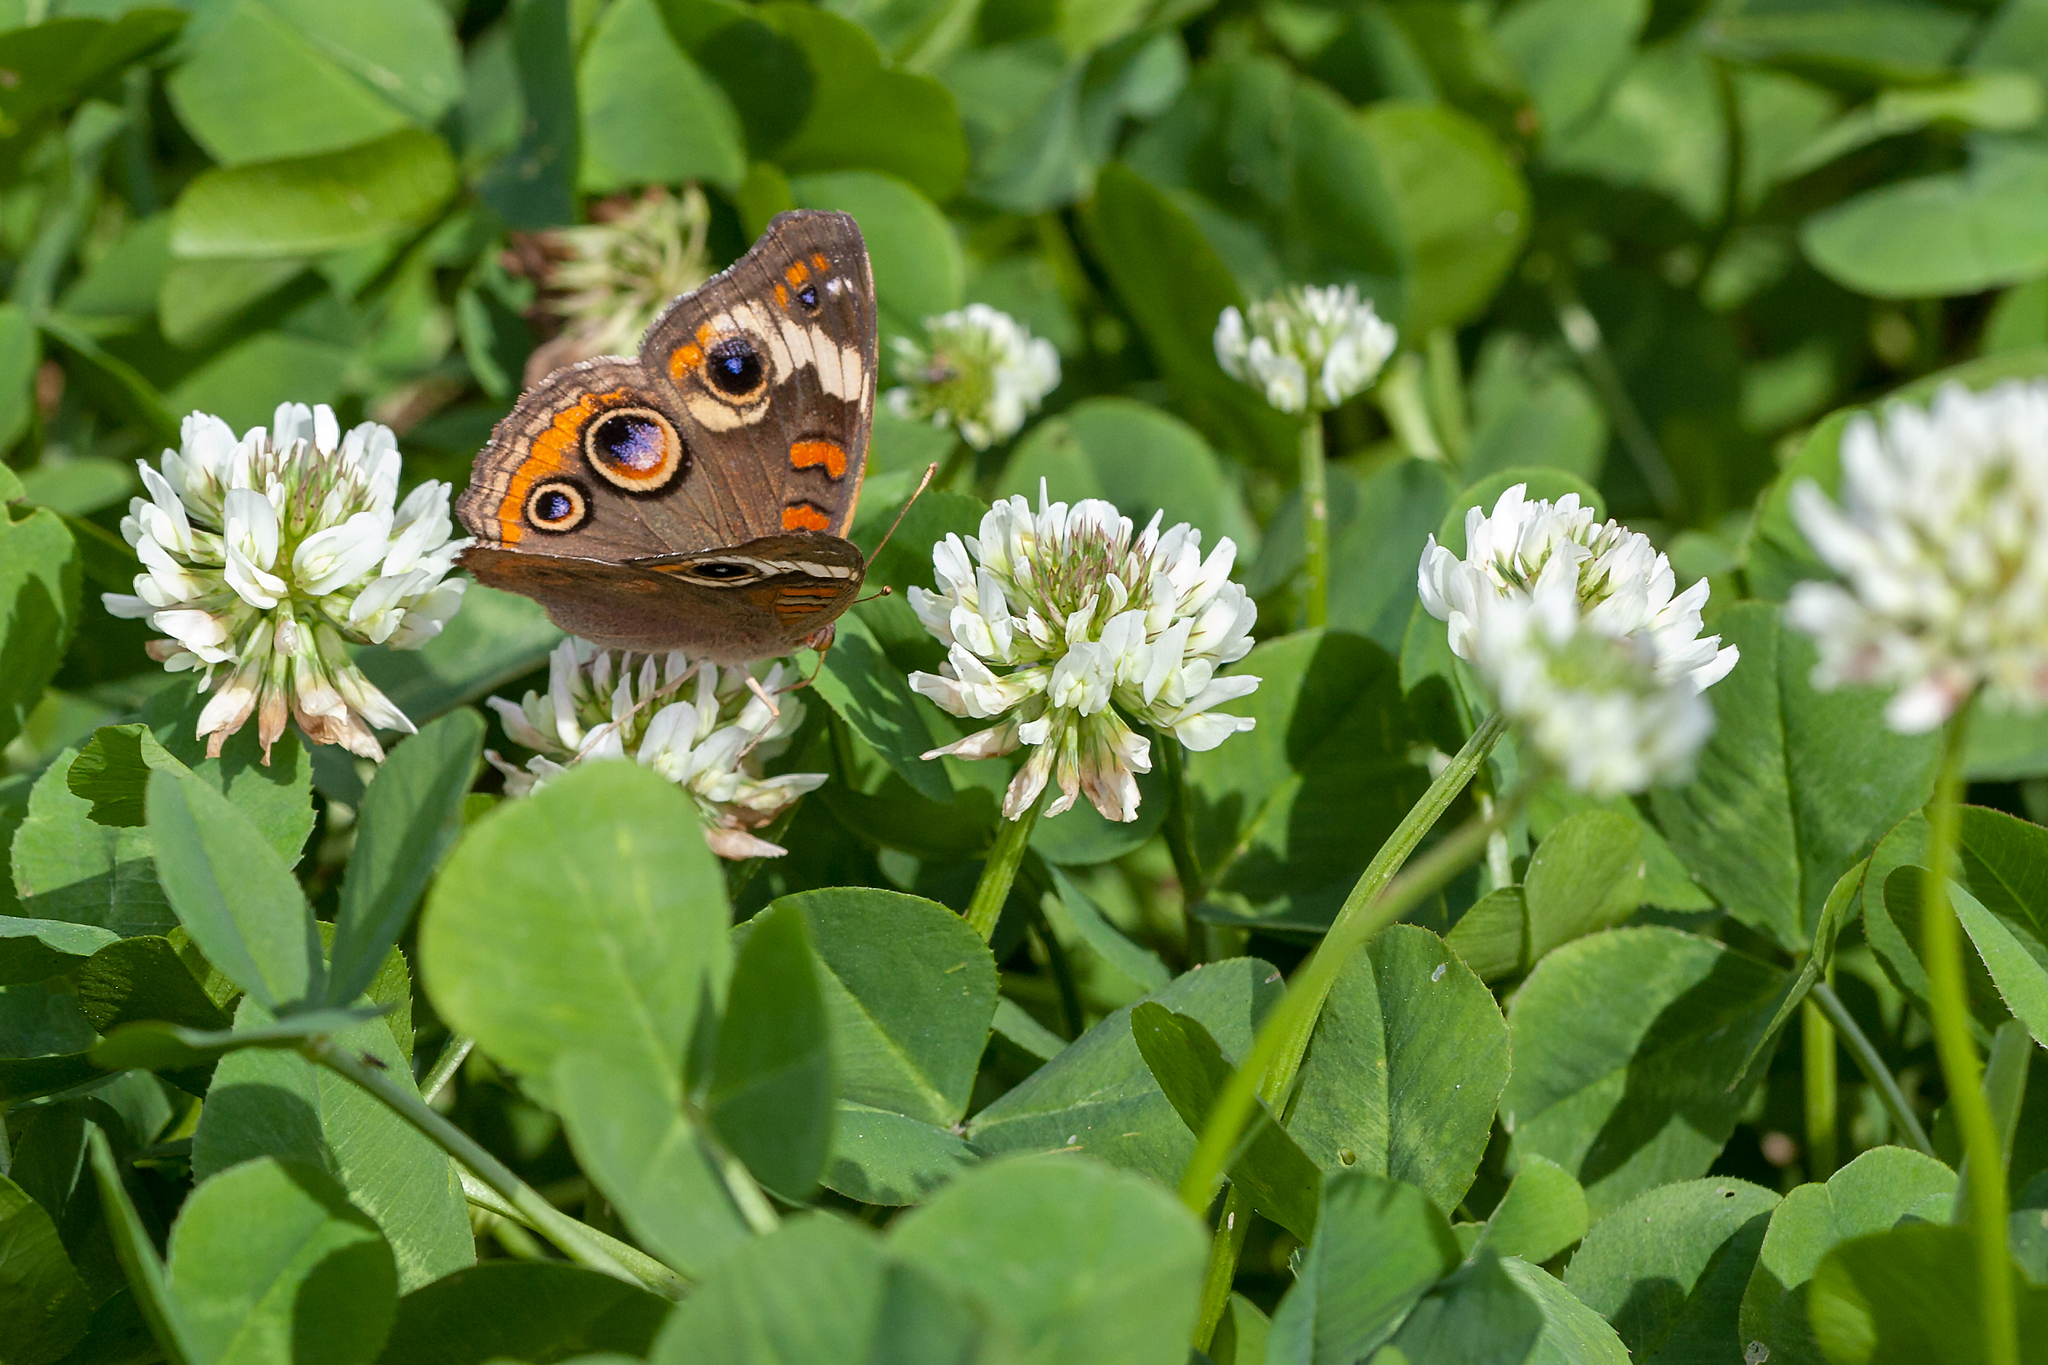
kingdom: Animalia
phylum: Arthropoda
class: Insecta
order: Lepidoptera
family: Nymphalidae
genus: Junonia
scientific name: Junonia coenia
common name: Common buckeye
